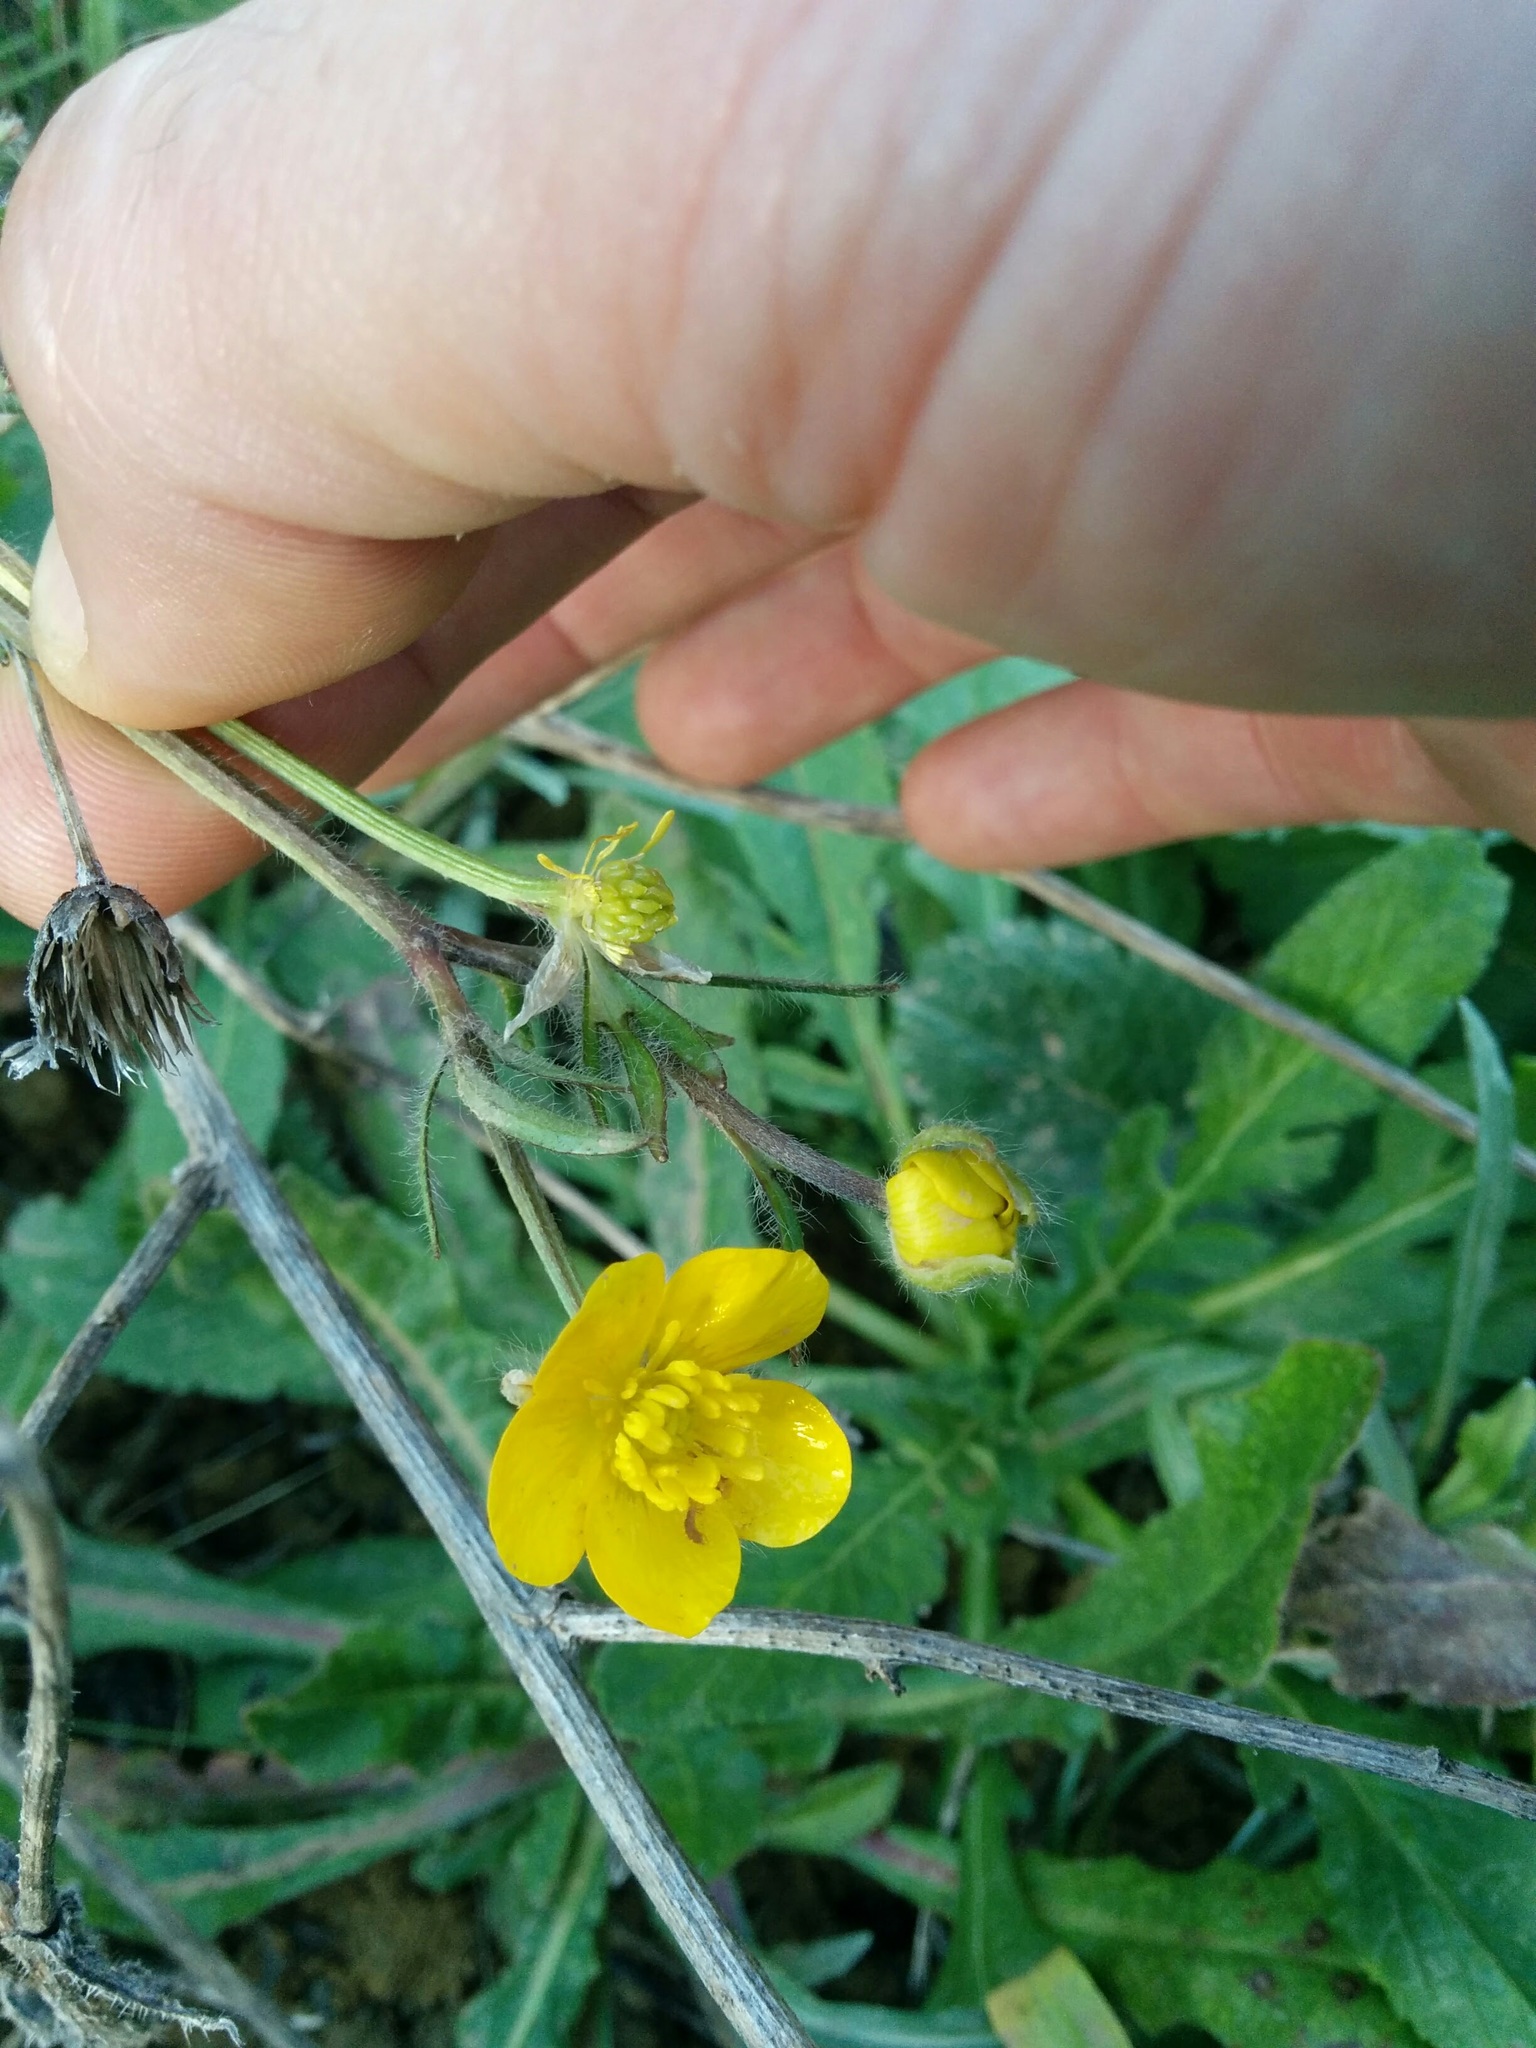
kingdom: Plantae
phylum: Tracheophyta
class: Magnoliopsida
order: Ranunculales
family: Ranunculaceae
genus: Ranunculus
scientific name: Ranunculus repens
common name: Creeping buttercup
